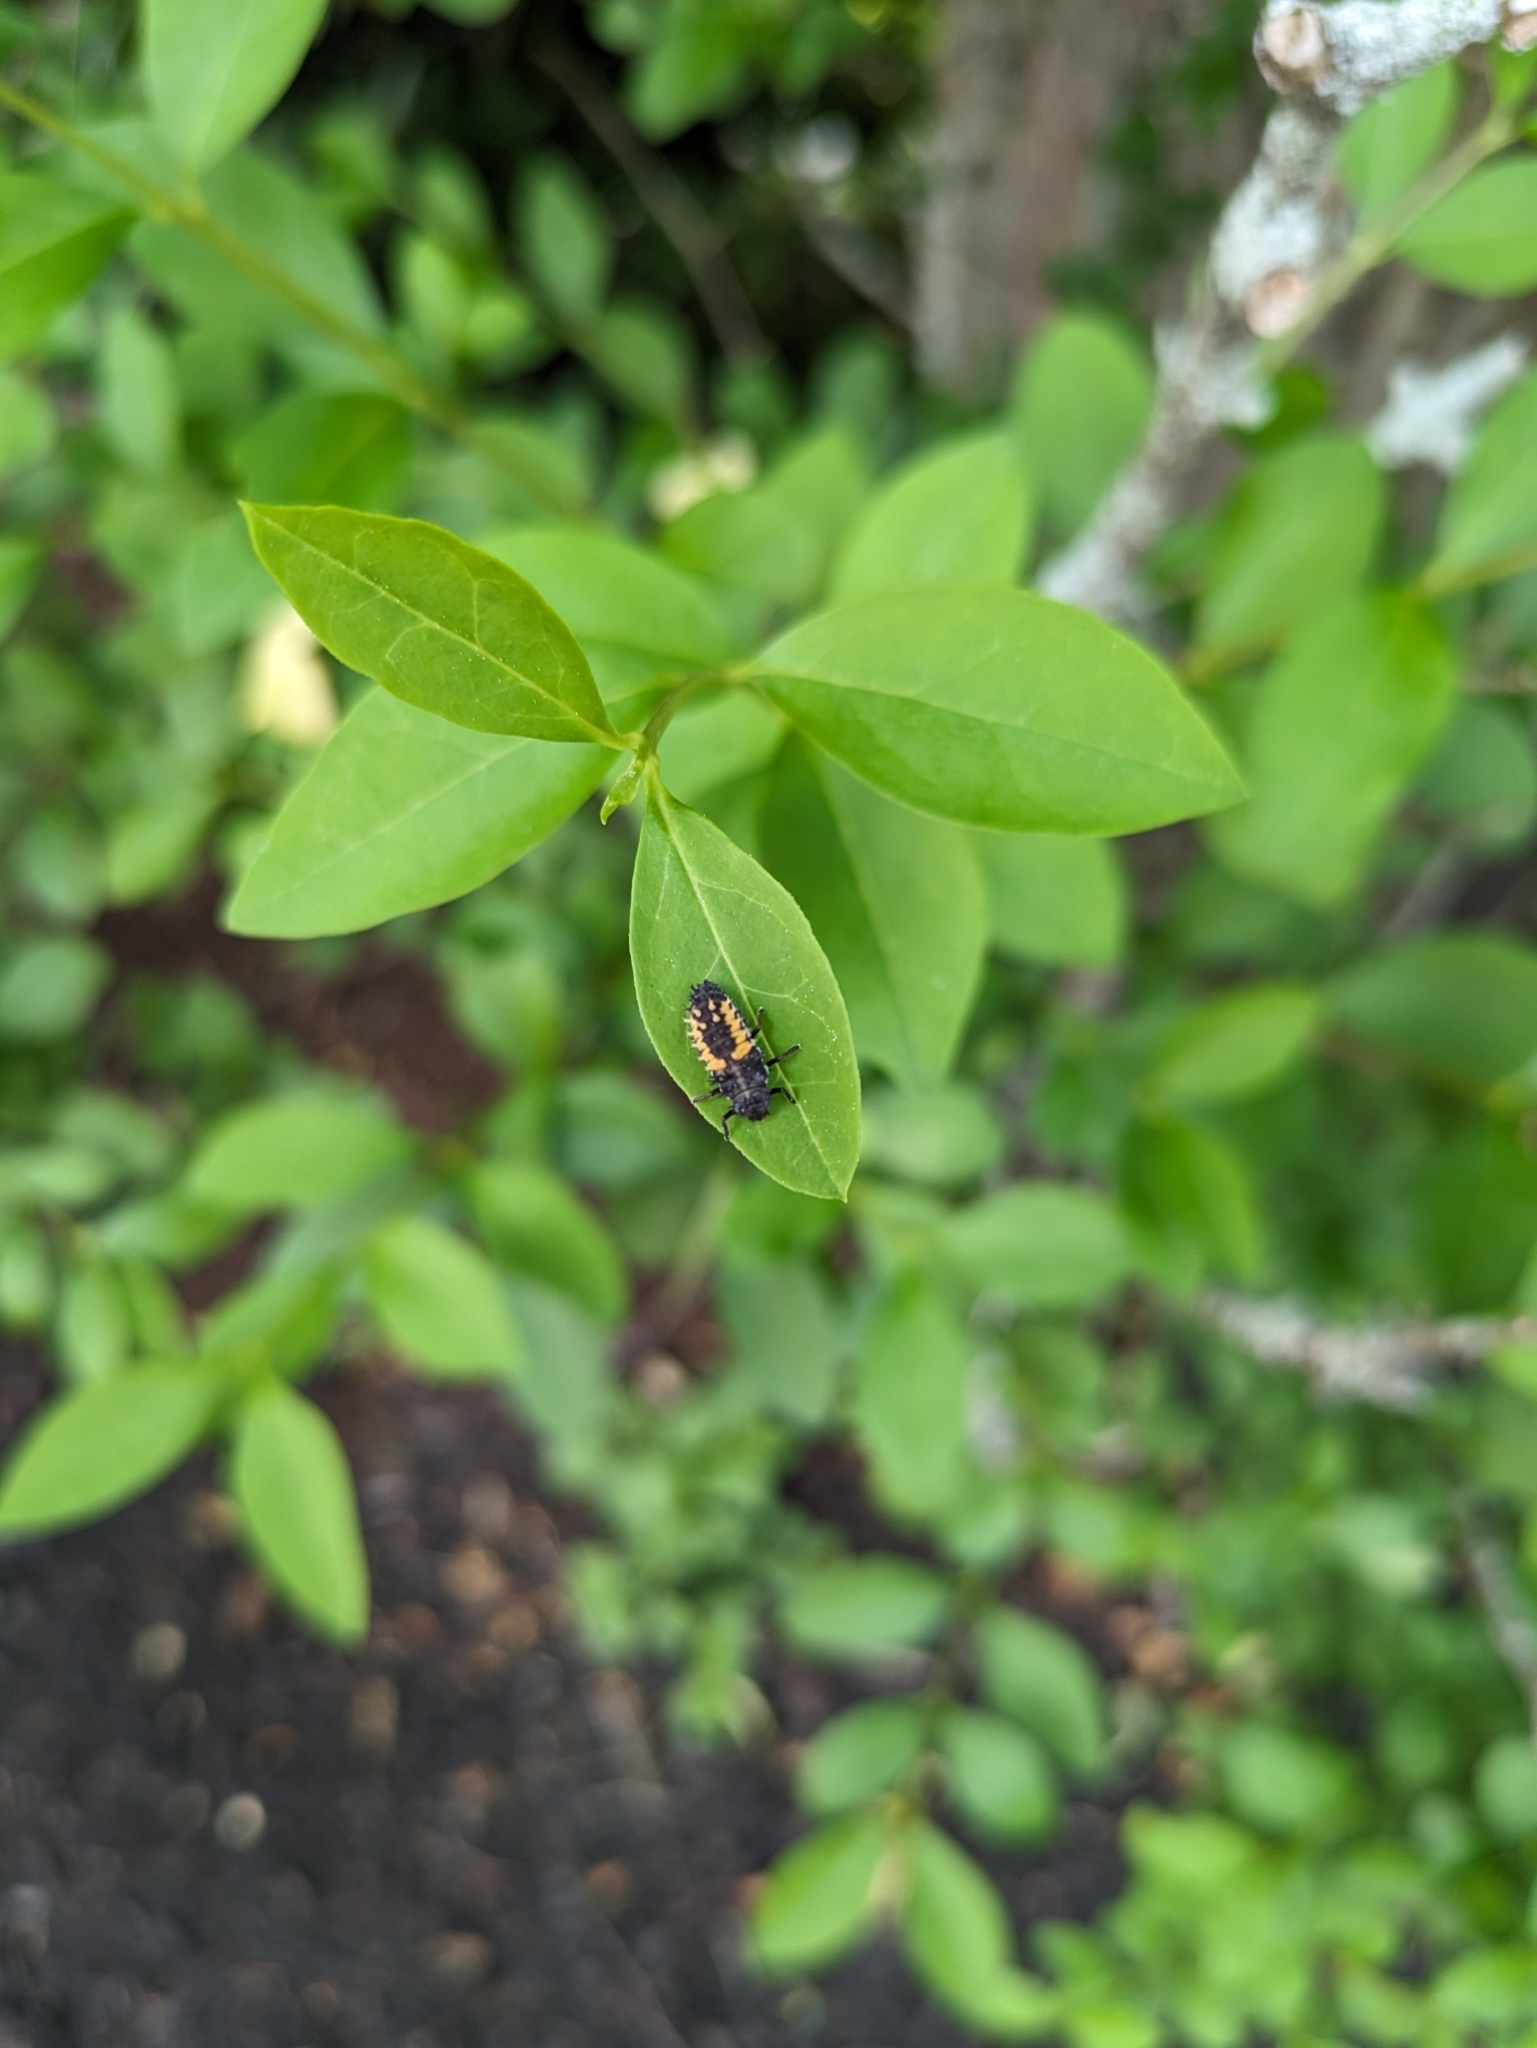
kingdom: Animalia
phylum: Arthropoda
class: Insecta
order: Coleoptera
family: Coccinellidae
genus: Harmonia
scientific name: Harmonia axyridis
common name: Harlequin ladybird
